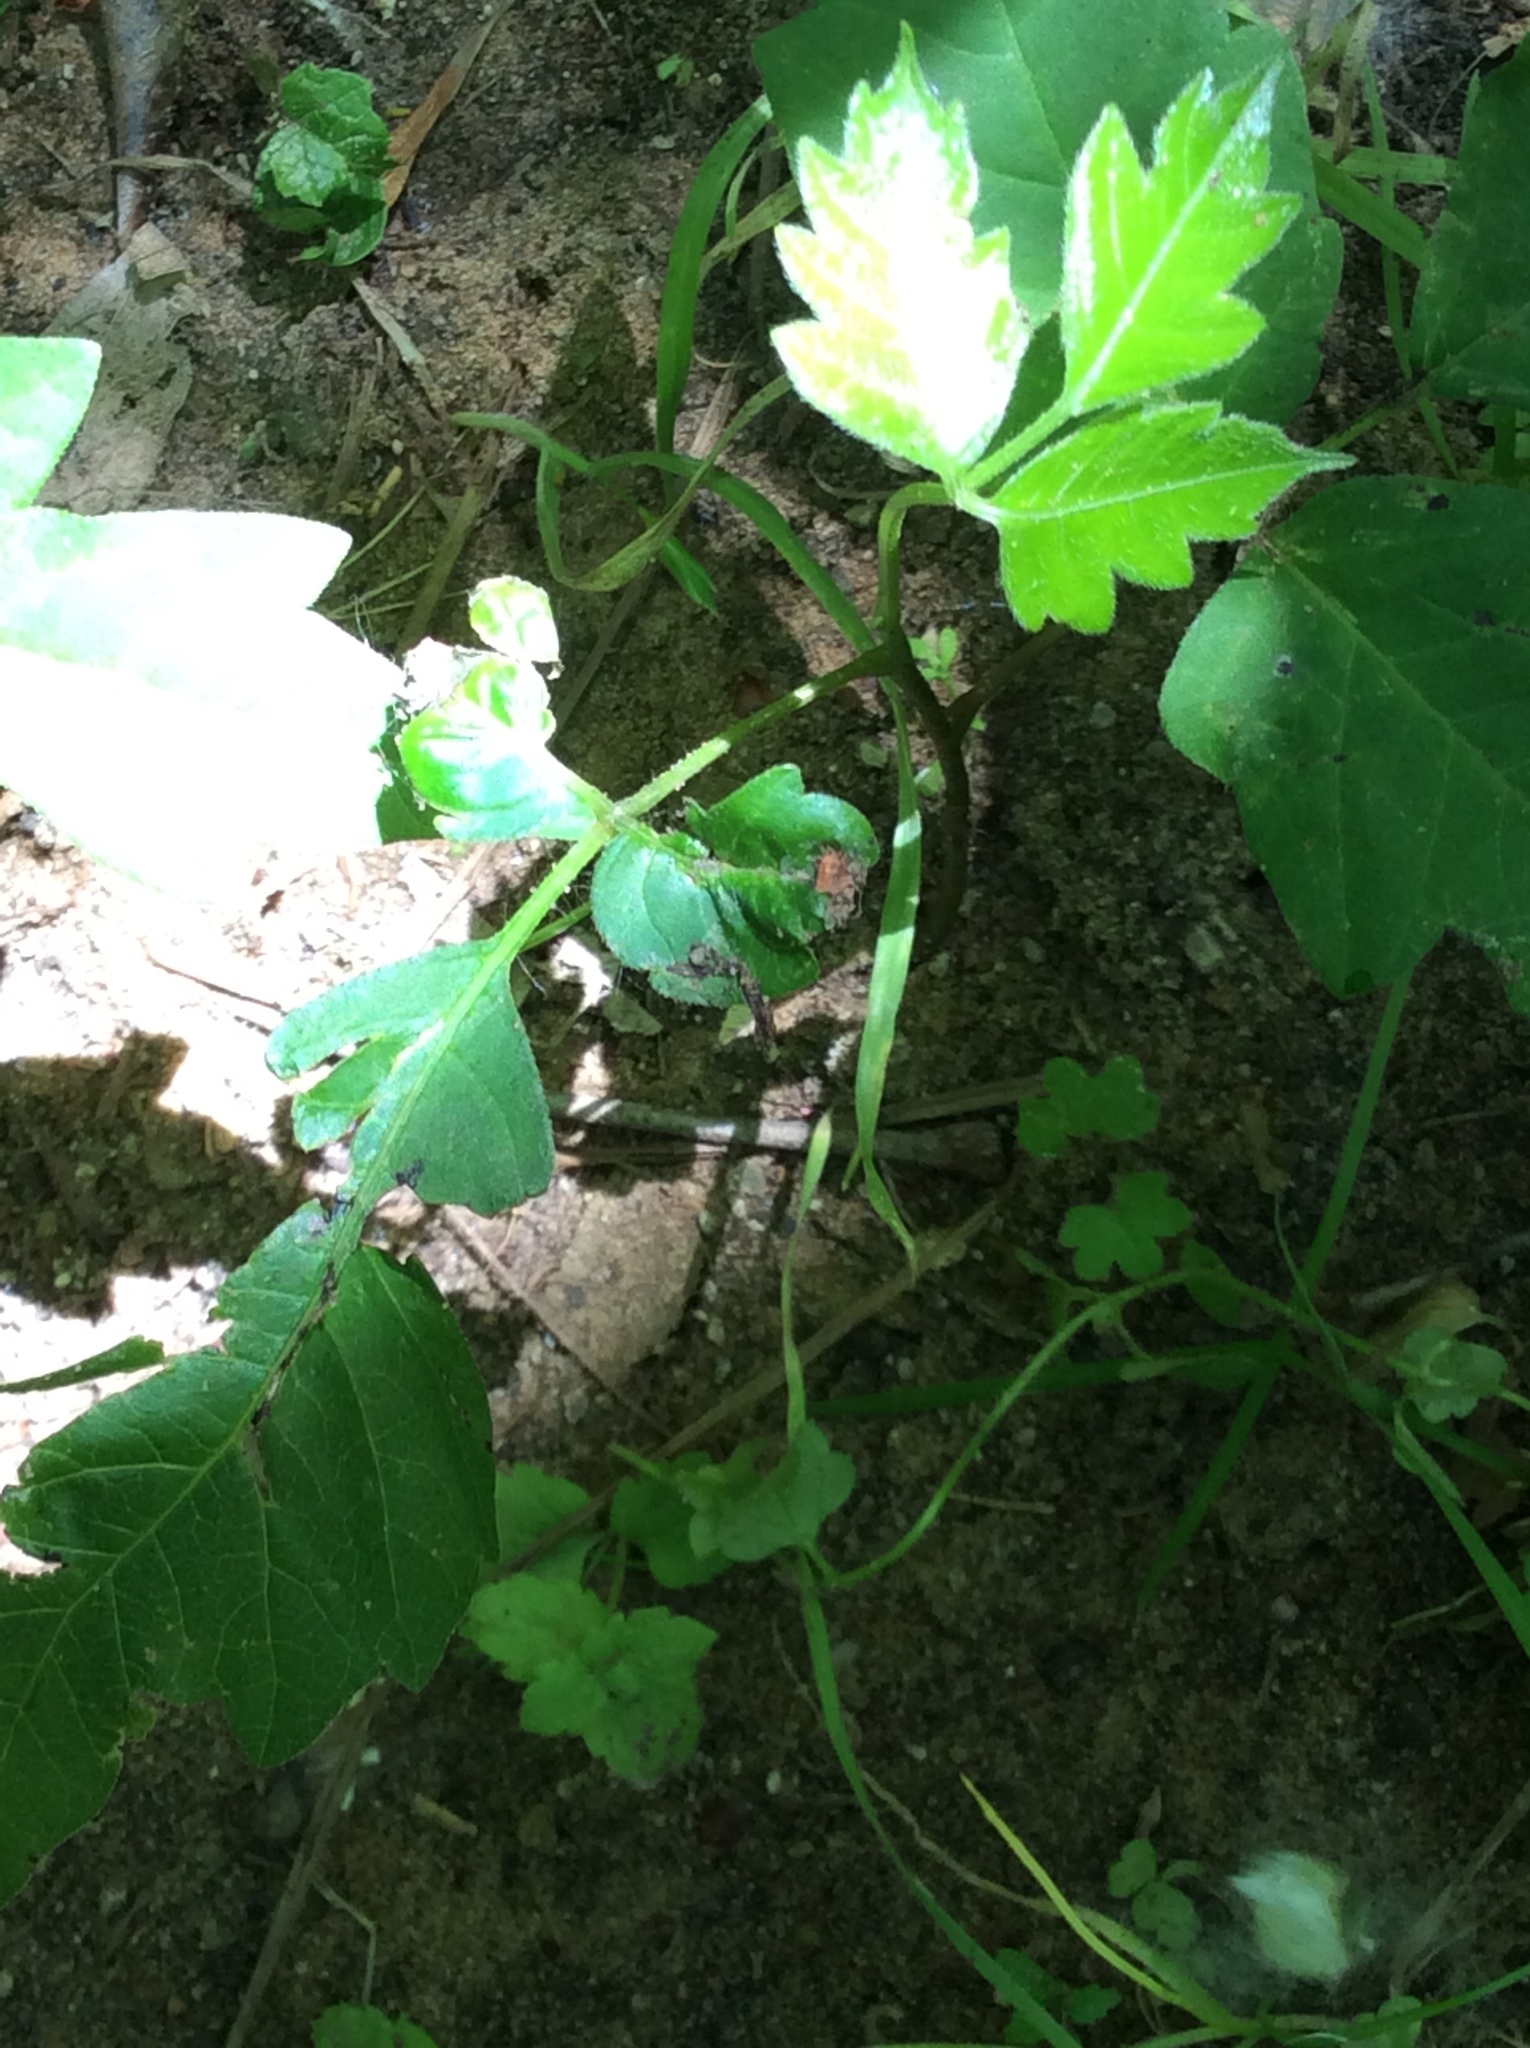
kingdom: Plantae
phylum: Tracheophyta
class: Magnoliopsida
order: Sapindales
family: Anacardiaceae
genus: Toxicodendron
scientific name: Toxicodendron radicans
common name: Poison ivy
